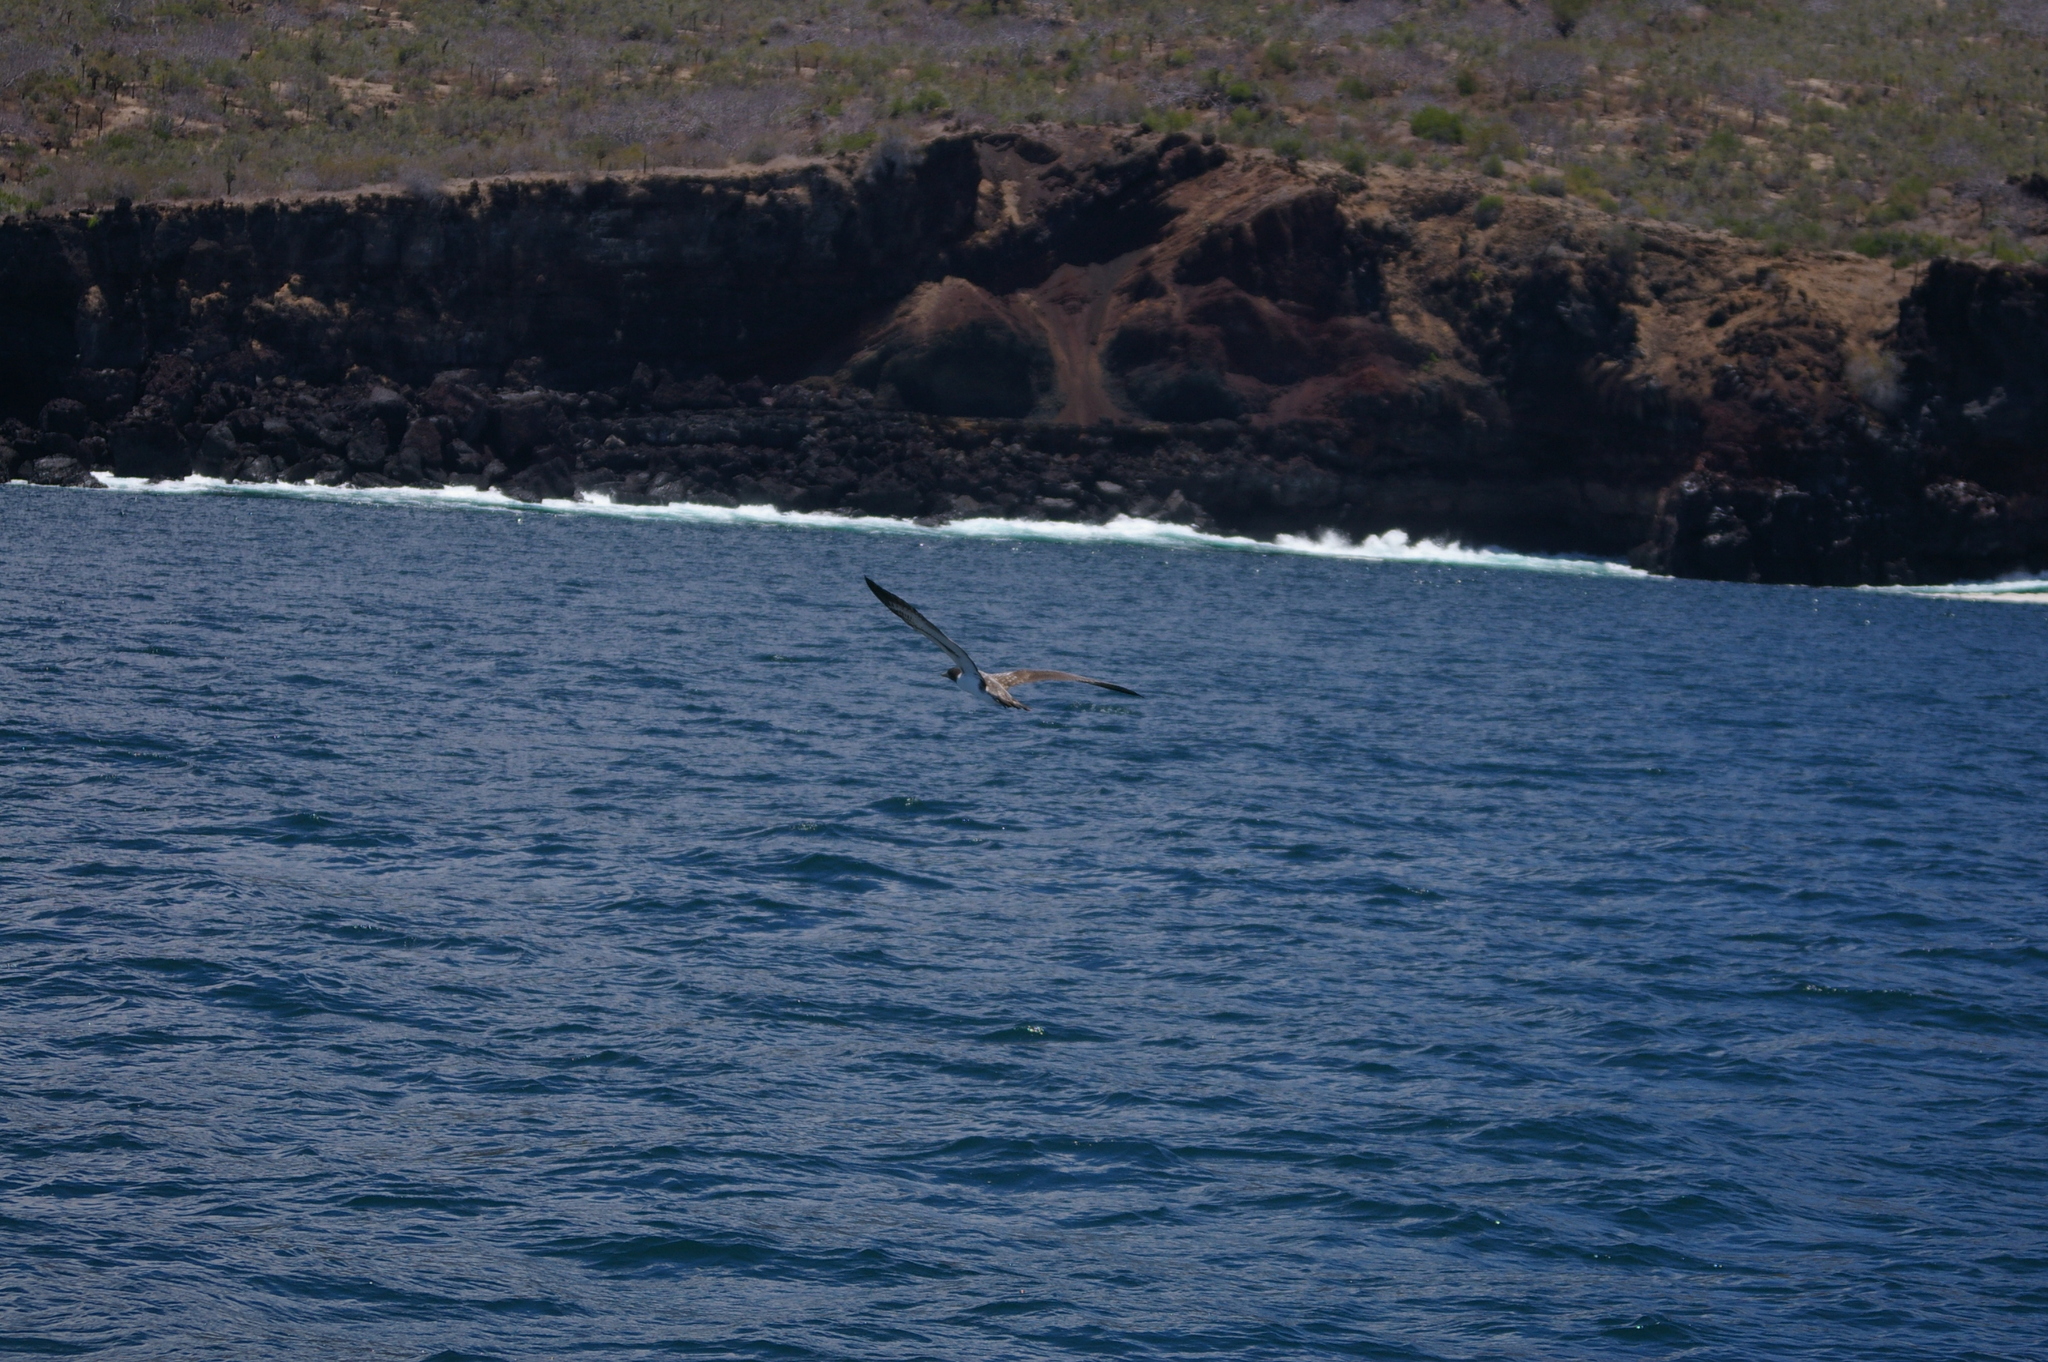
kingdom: Animalia
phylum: Chordata
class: Aves
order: Suliformes
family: Sulidae
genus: Sula
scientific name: Sula granti
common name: Nazca booby
